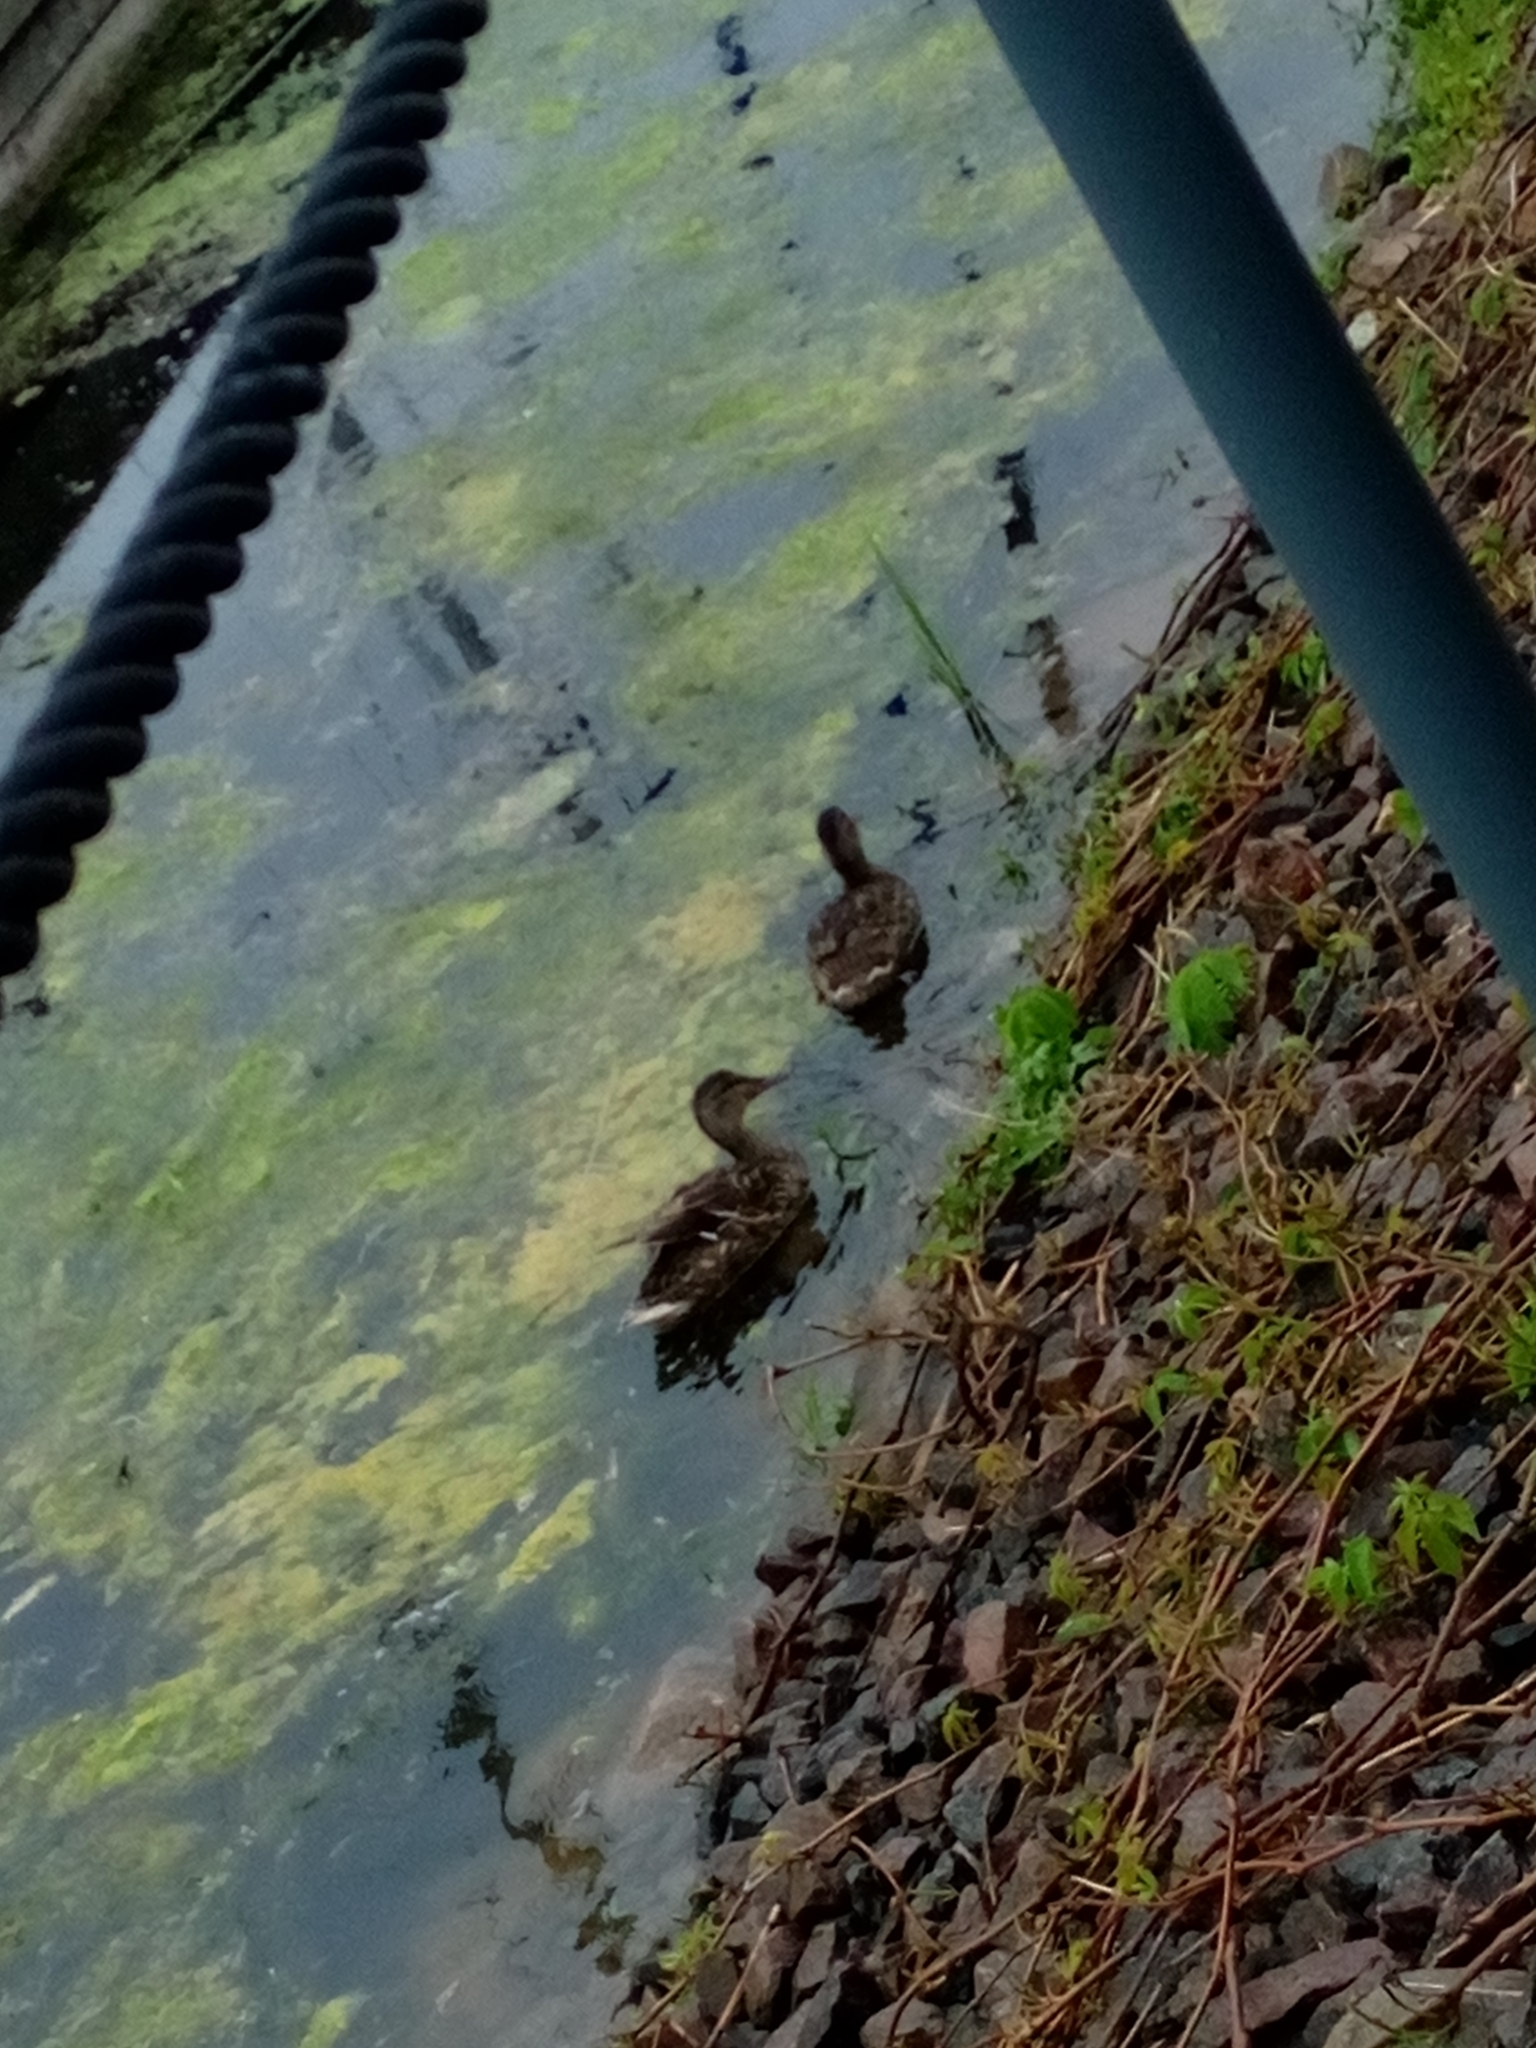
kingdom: Animalia
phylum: Chordata
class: Aves
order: Anseriformes
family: Anatidae
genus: Anas
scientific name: Anas platyrhynchos
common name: Mallard
